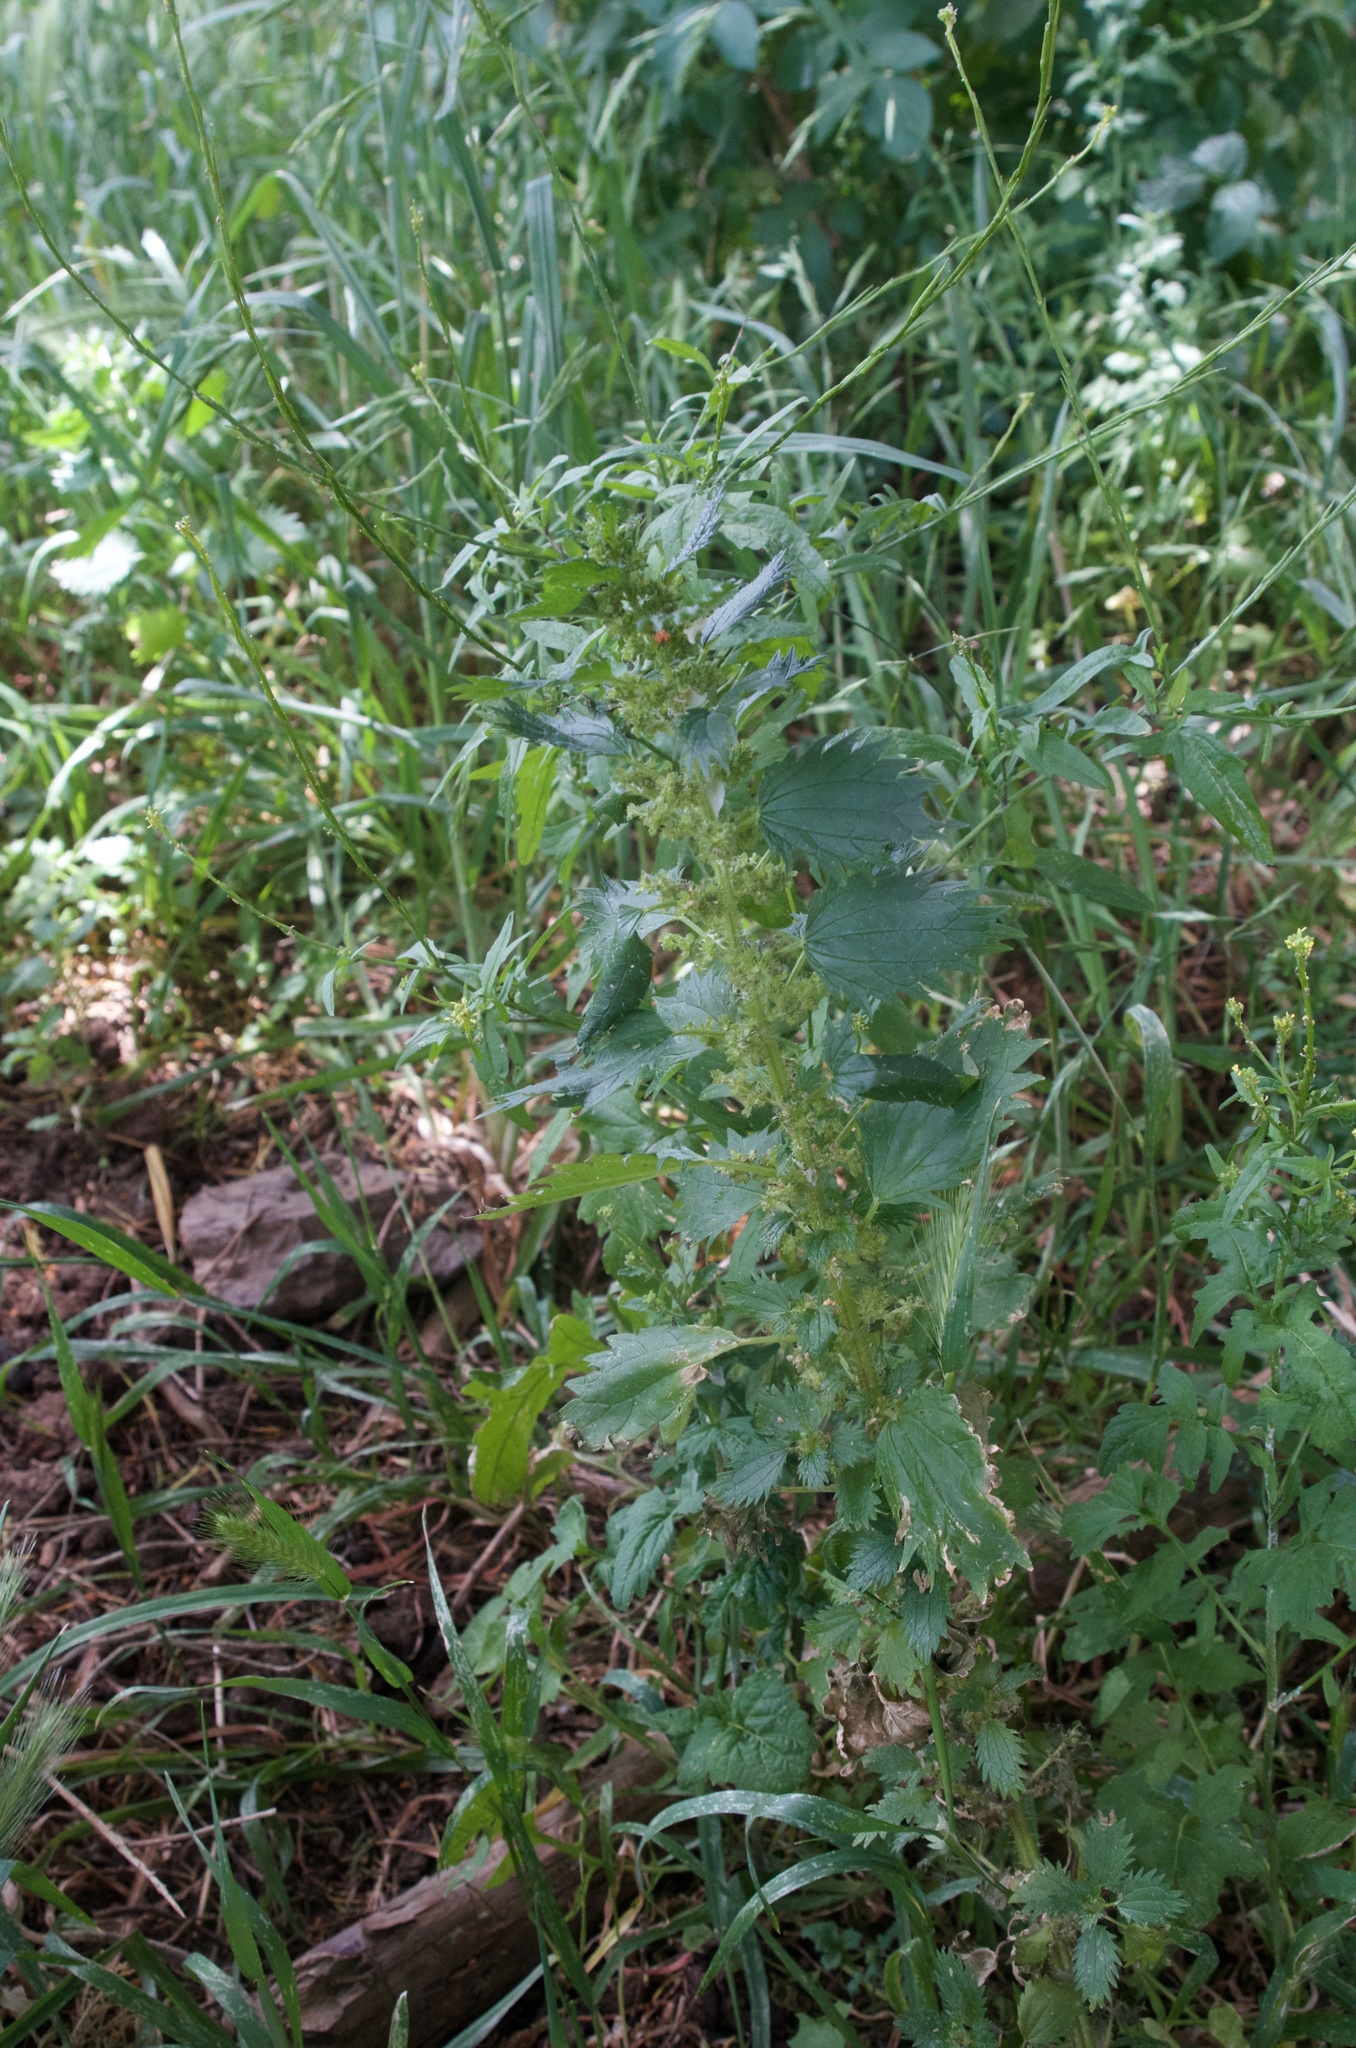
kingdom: Plantae
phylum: Tracheophyta
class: Magnoliopsida
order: Rosales
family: Urticaceae
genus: Urtica
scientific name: Urtica urens
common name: Dwarf nettle
